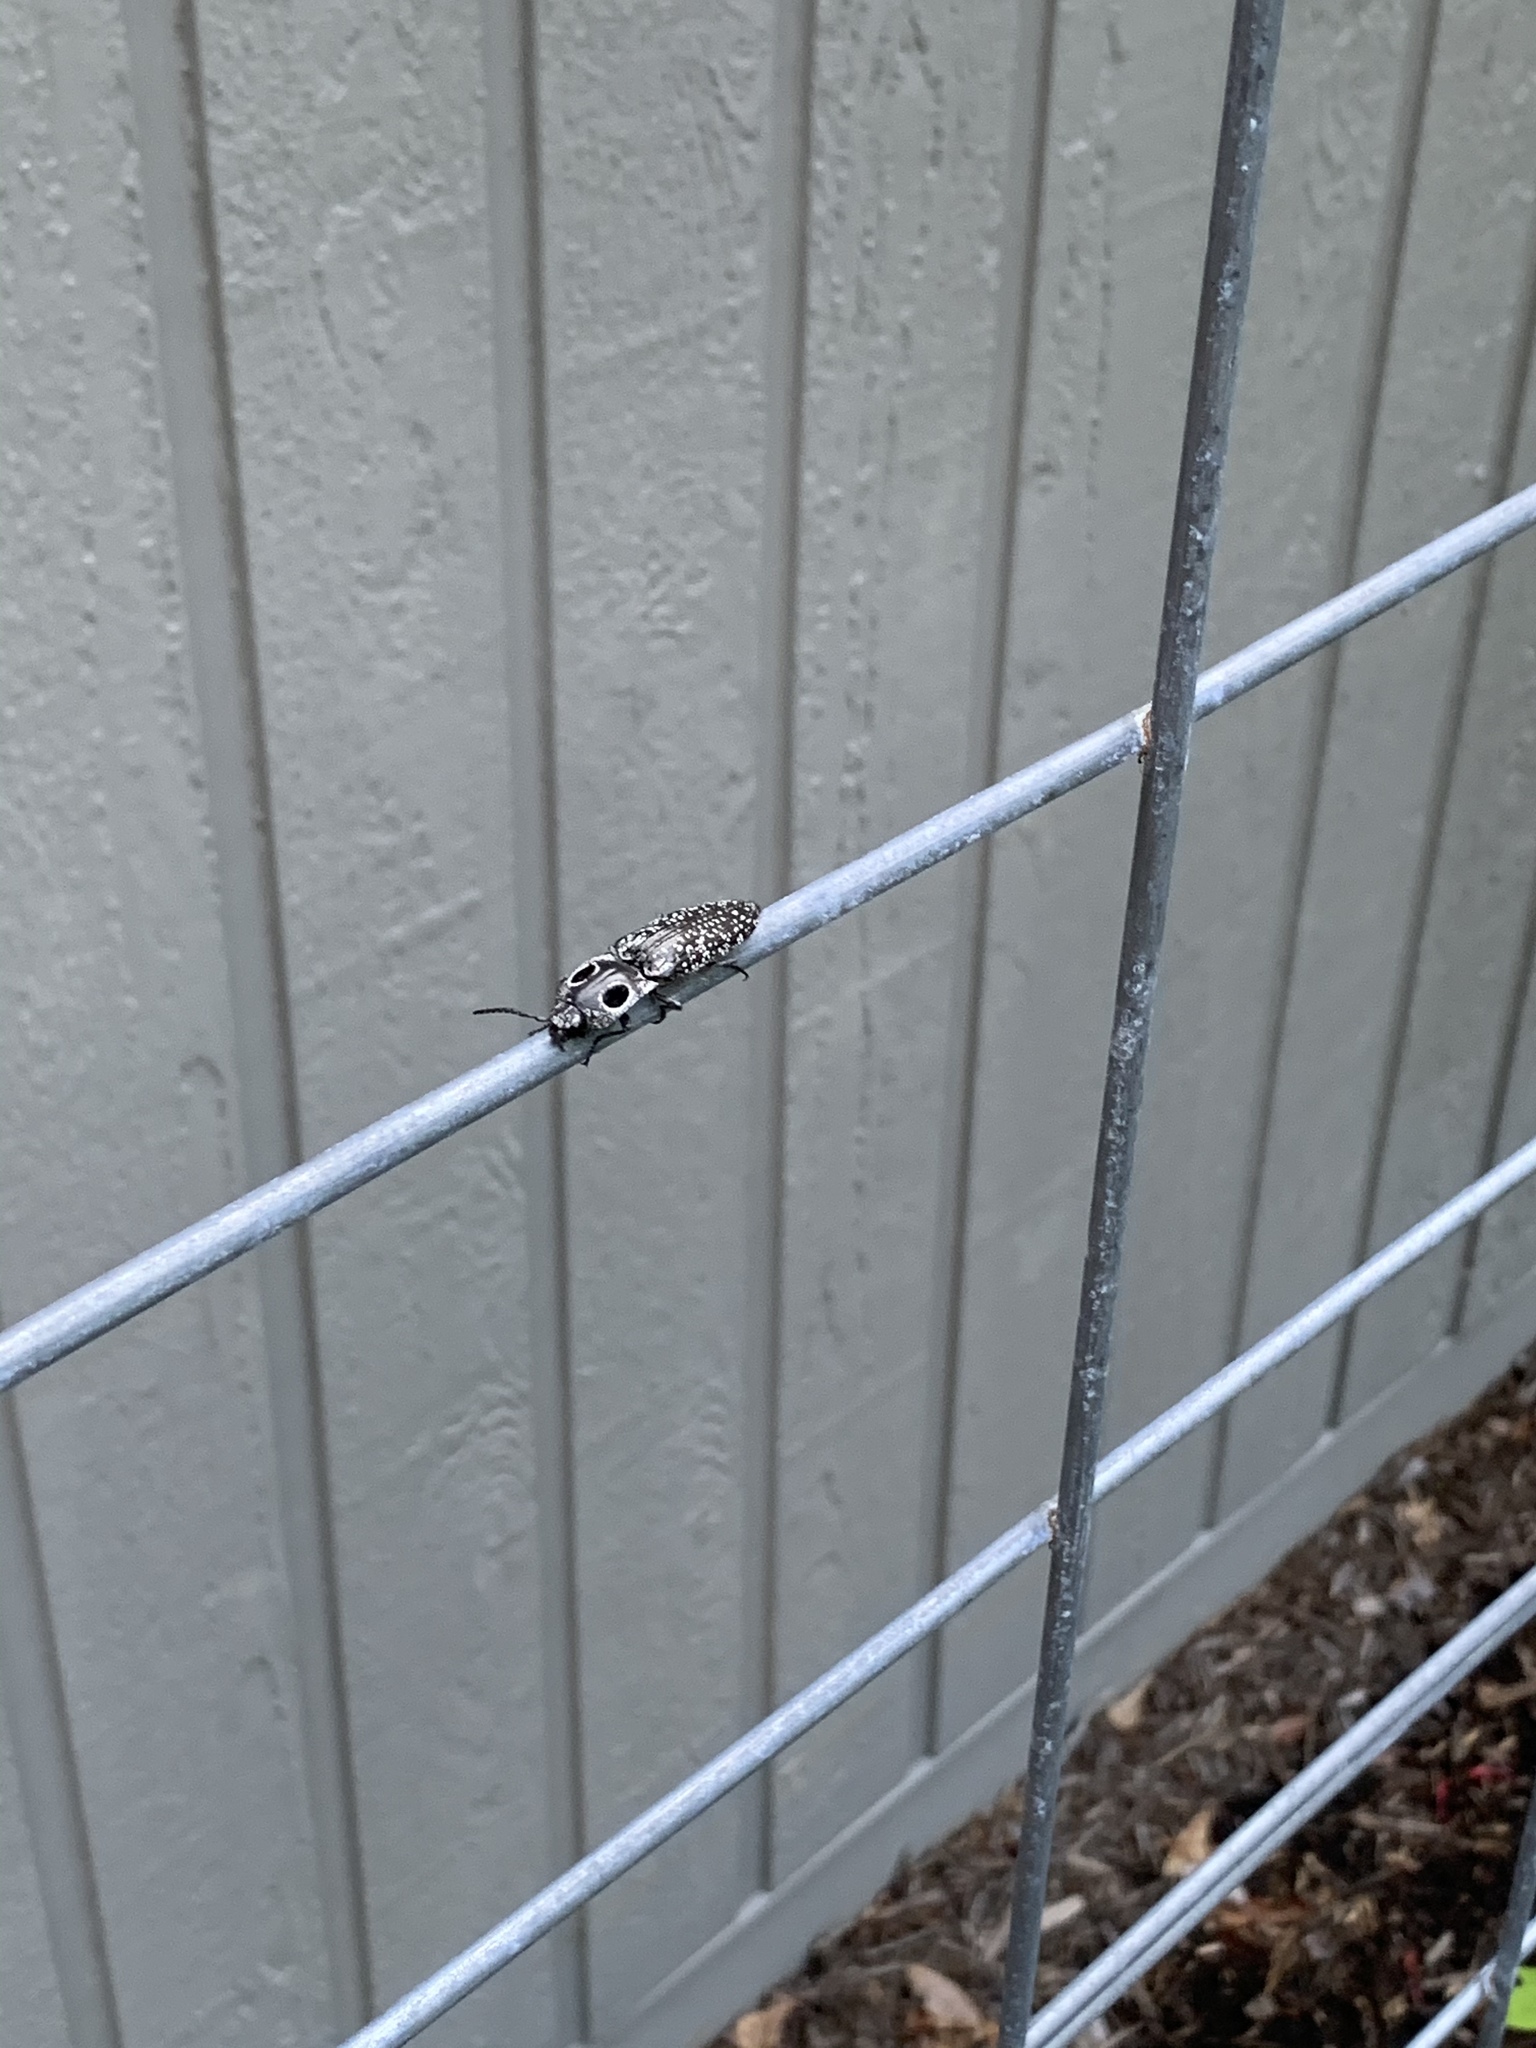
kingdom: Animalia
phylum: Arthropoda
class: Insecta
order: Coleoptera
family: Elateridae
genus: Alaus
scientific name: Alaus oculatus
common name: Eastern eyed click beetle
